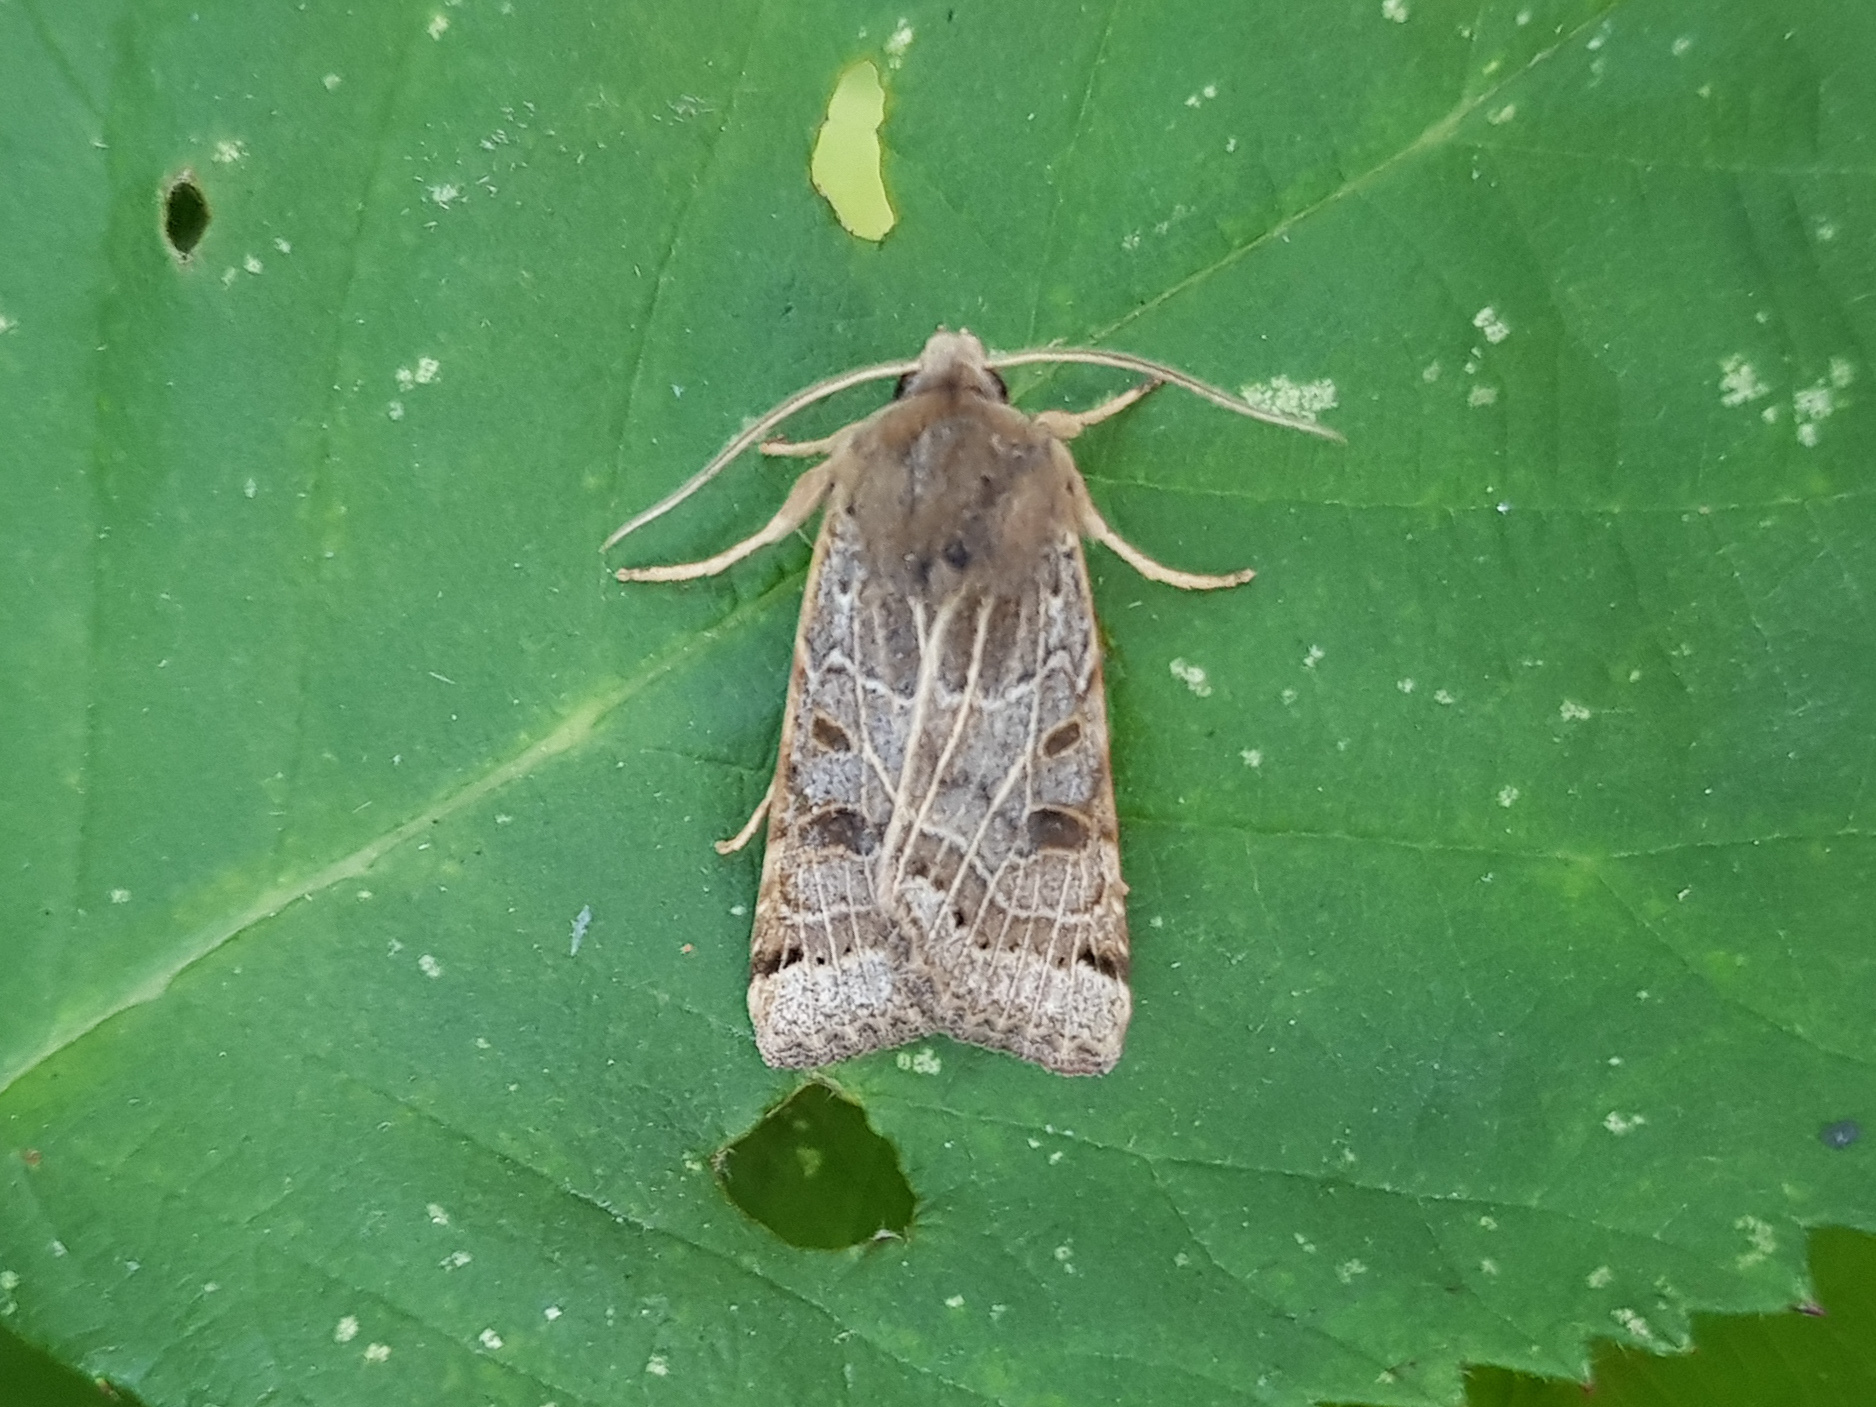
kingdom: Animalia
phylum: Arthropoda
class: Insecta
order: Lepidoptera
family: Noctuidae
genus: Agrochola
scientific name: Agrochola lunosa
